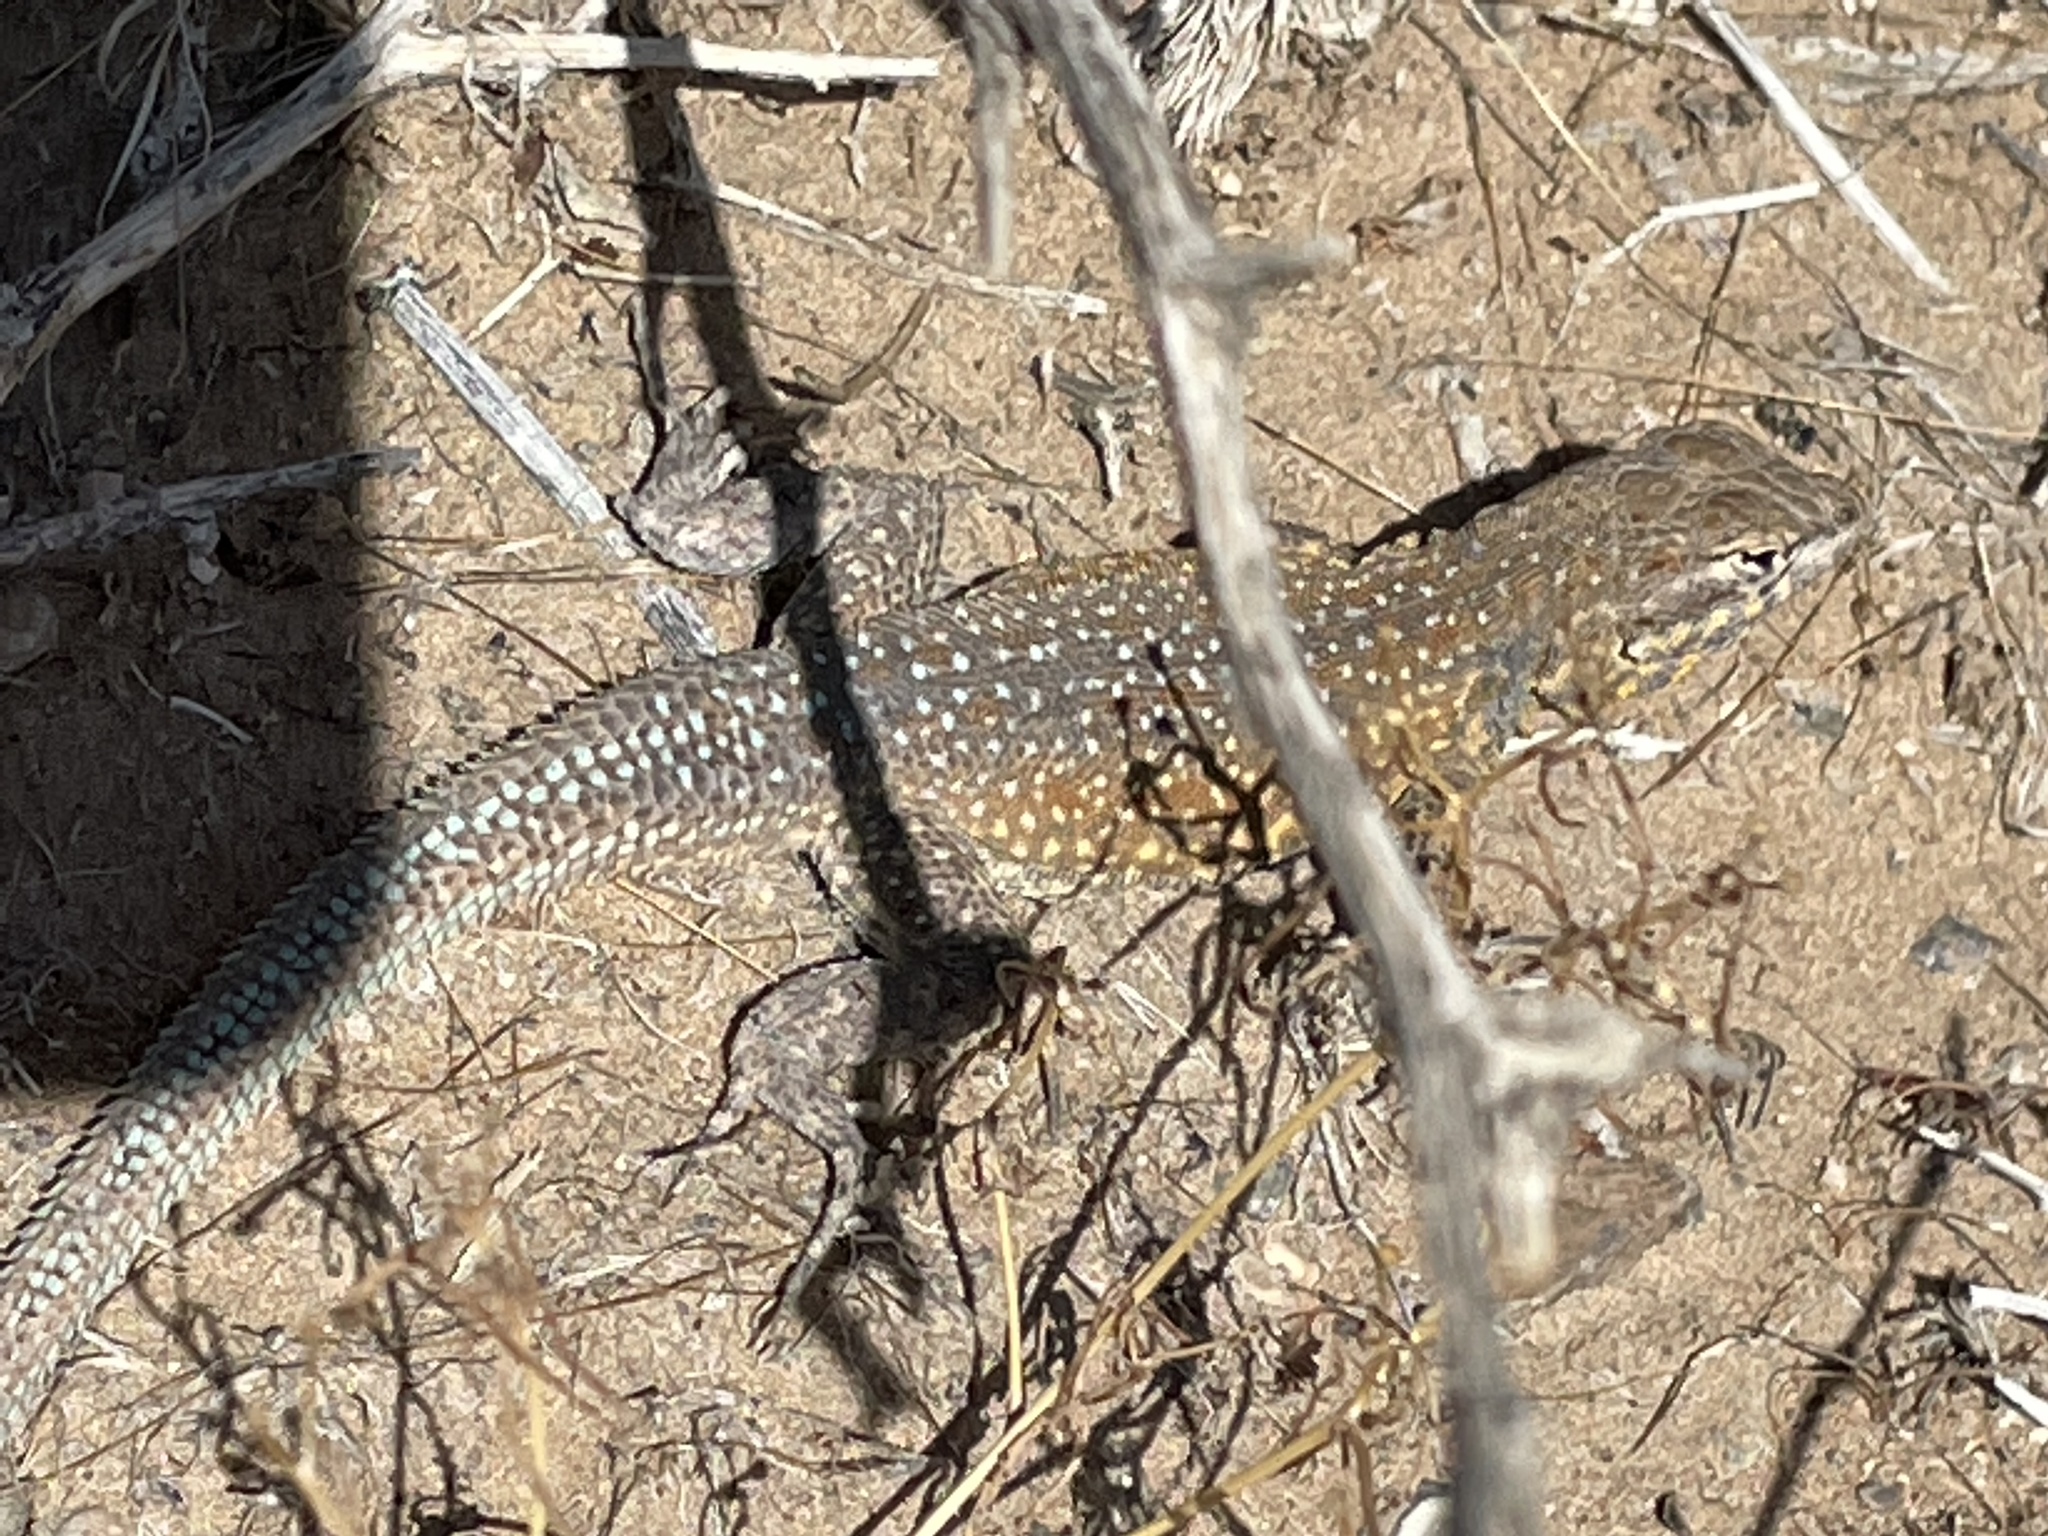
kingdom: Animalia
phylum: Chordata
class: Squamata
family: Phrynosomatidae
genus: Uta
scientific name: Uta stansburiana
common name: Side-blotched lizard
